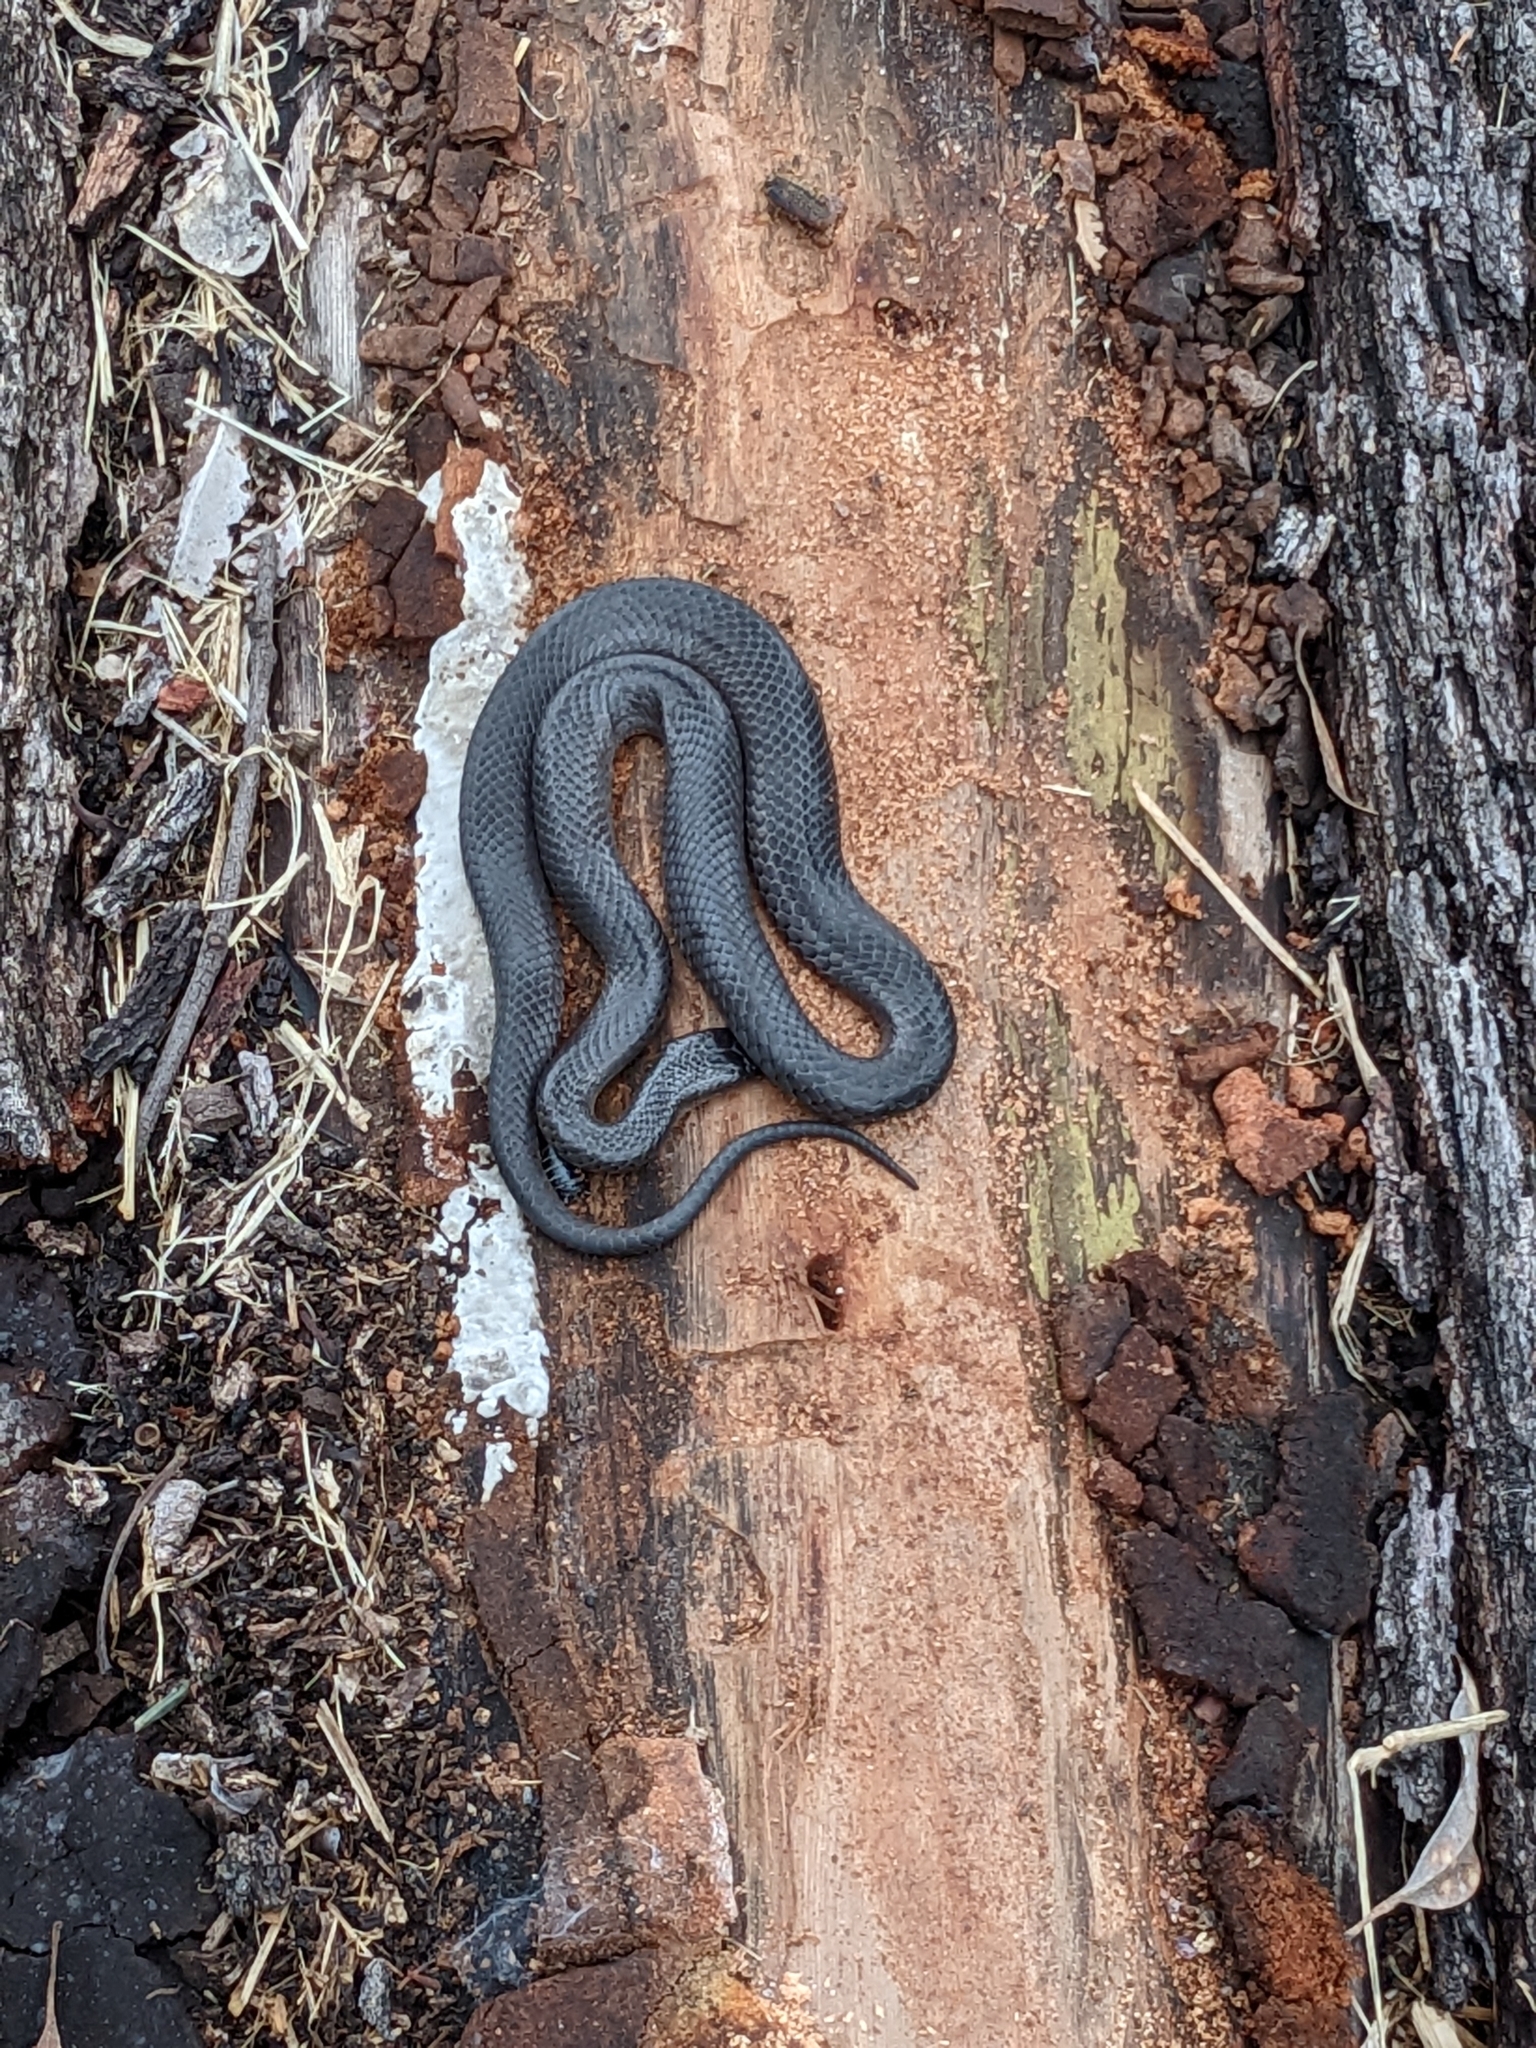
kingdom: Animalia
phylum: Chordata
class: Squamata
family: Elapidae
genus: Cryptophis
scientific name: Cryptophis nigrescens
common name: Eastern small-eyed snake
